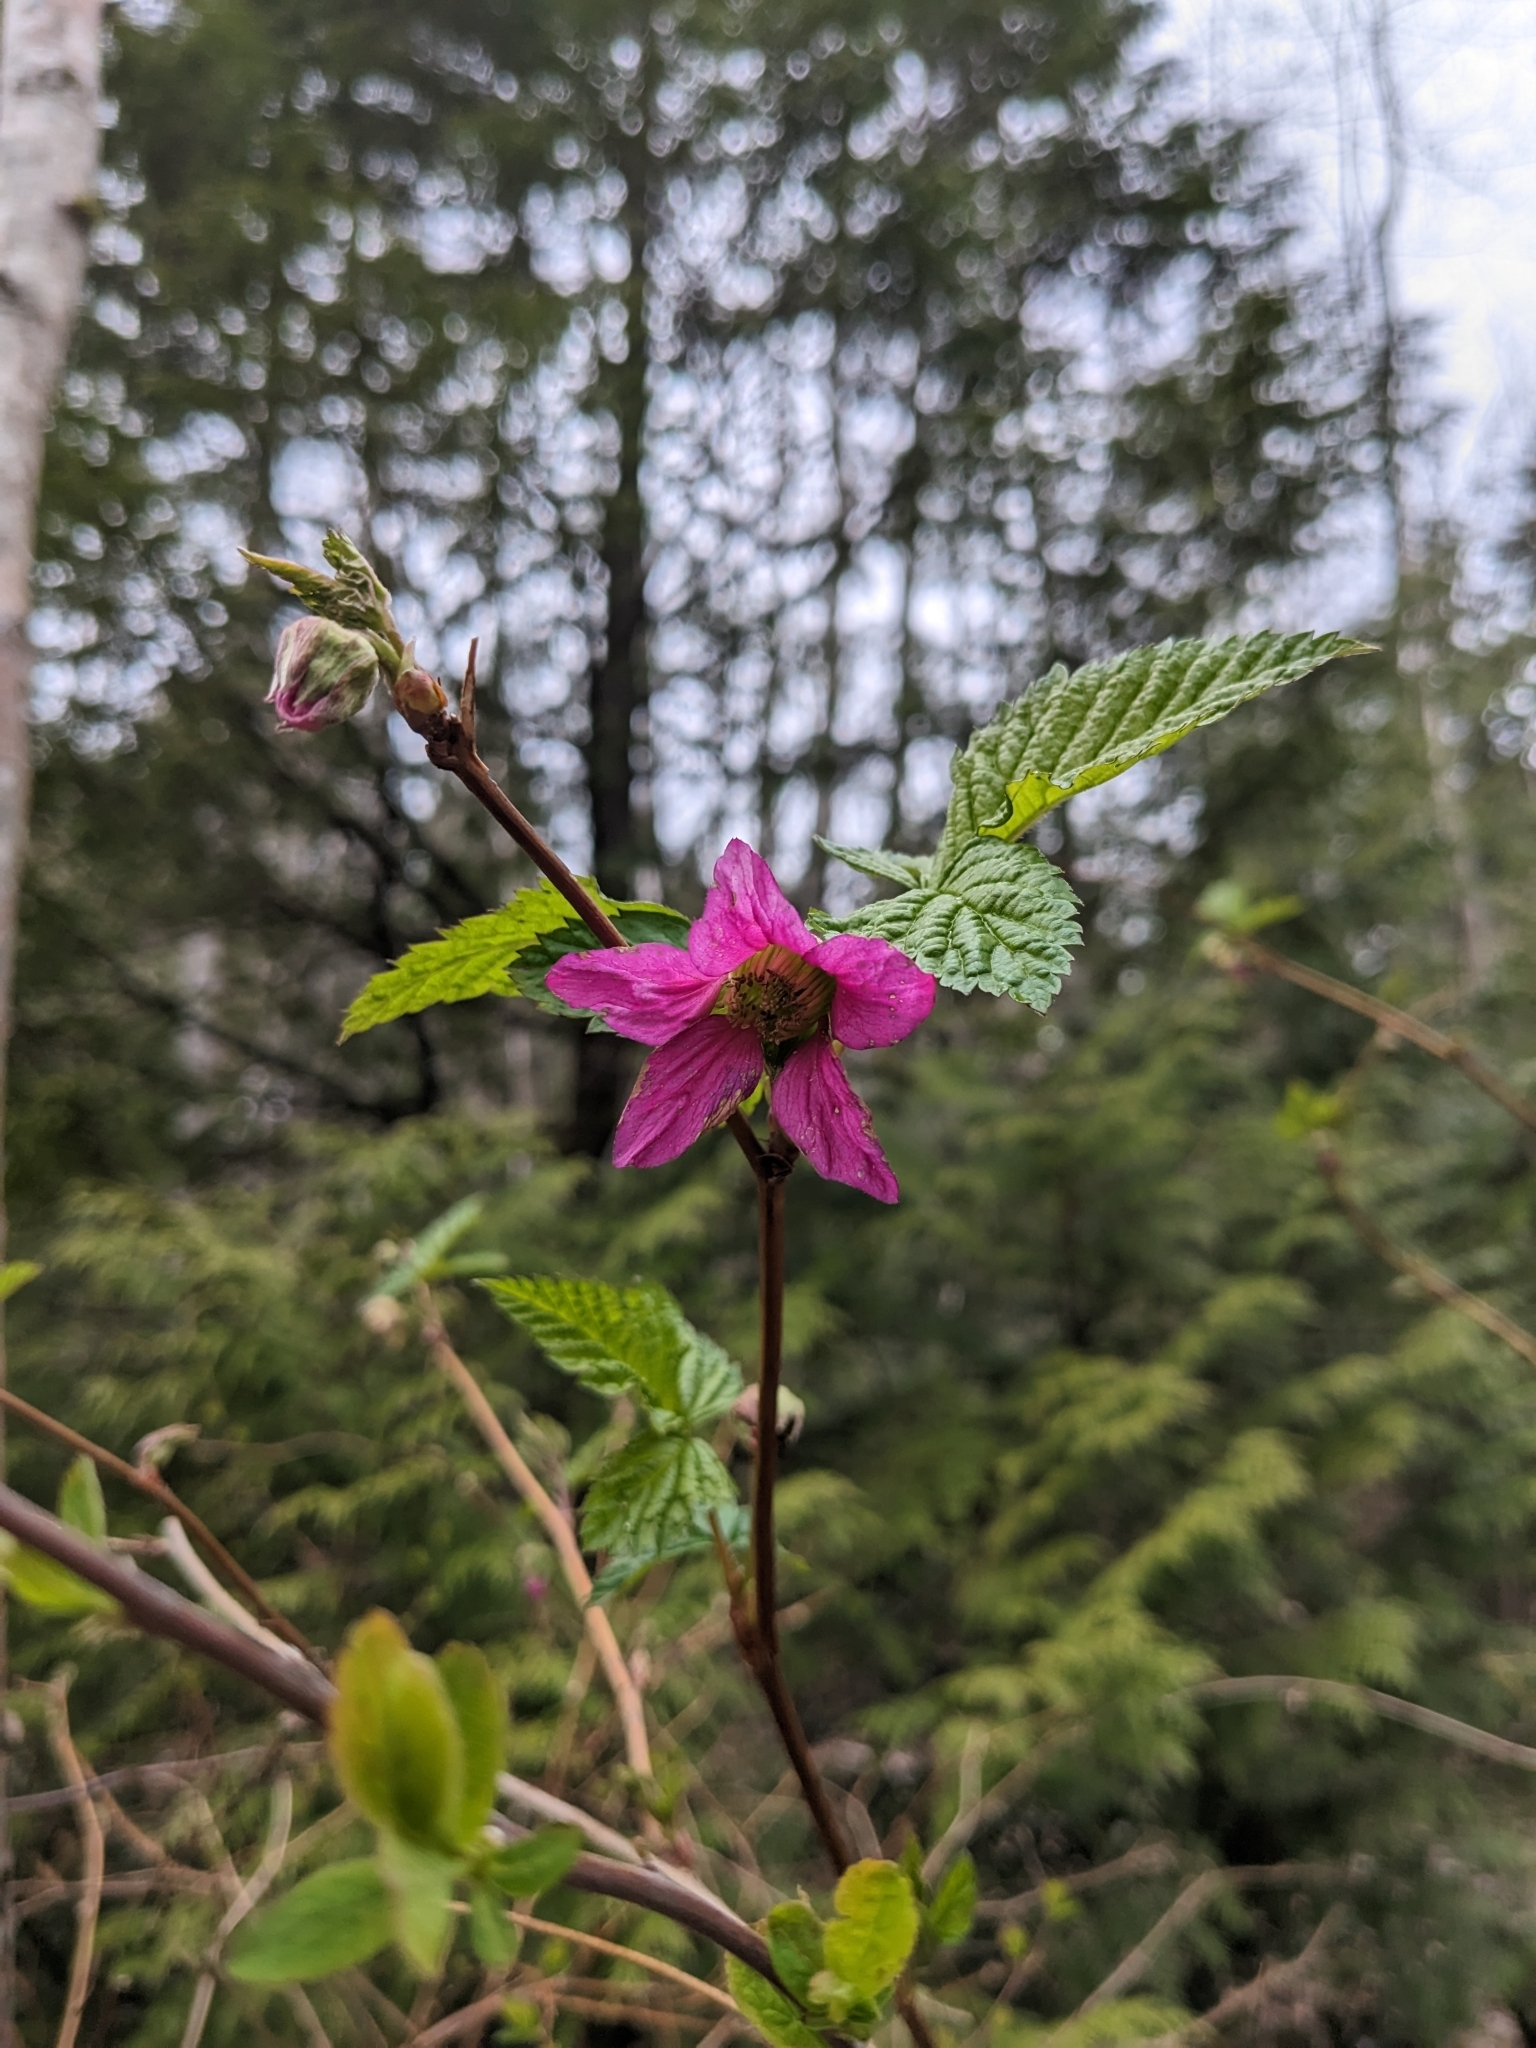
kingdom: Plantae
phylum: Tracheophyta
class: Magnoliopsida
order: Rosales
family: Rosaceae
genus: Rubus
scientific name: Rubus spectabilis
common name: Salmonberry
